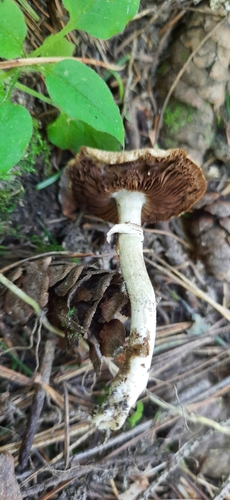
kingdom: Fungi
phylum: Basidiomycota
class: Agaricomycetes
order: Agaricales
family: Strophariaceae
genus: Agrocybe
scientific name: Agrocybe praecox
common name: Spring fieldcap
